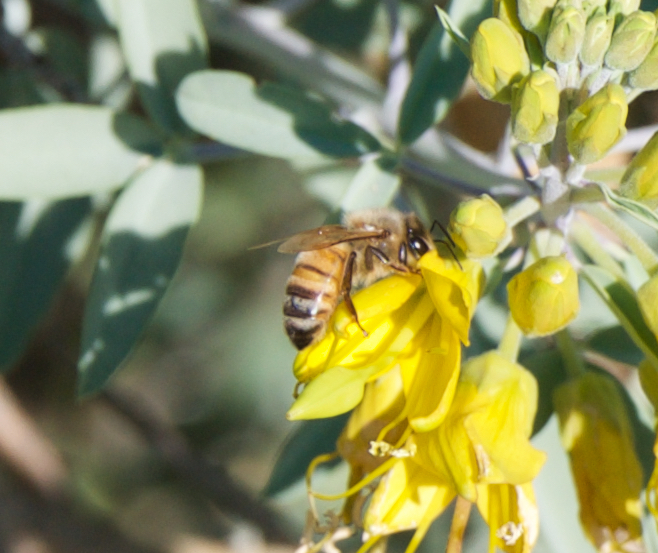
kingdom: Animalia
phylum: Arthropoda
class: Insecta
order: Hymenoptera
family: Apidae
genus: Apis
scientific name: Apis mellifera
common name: Honey bee
